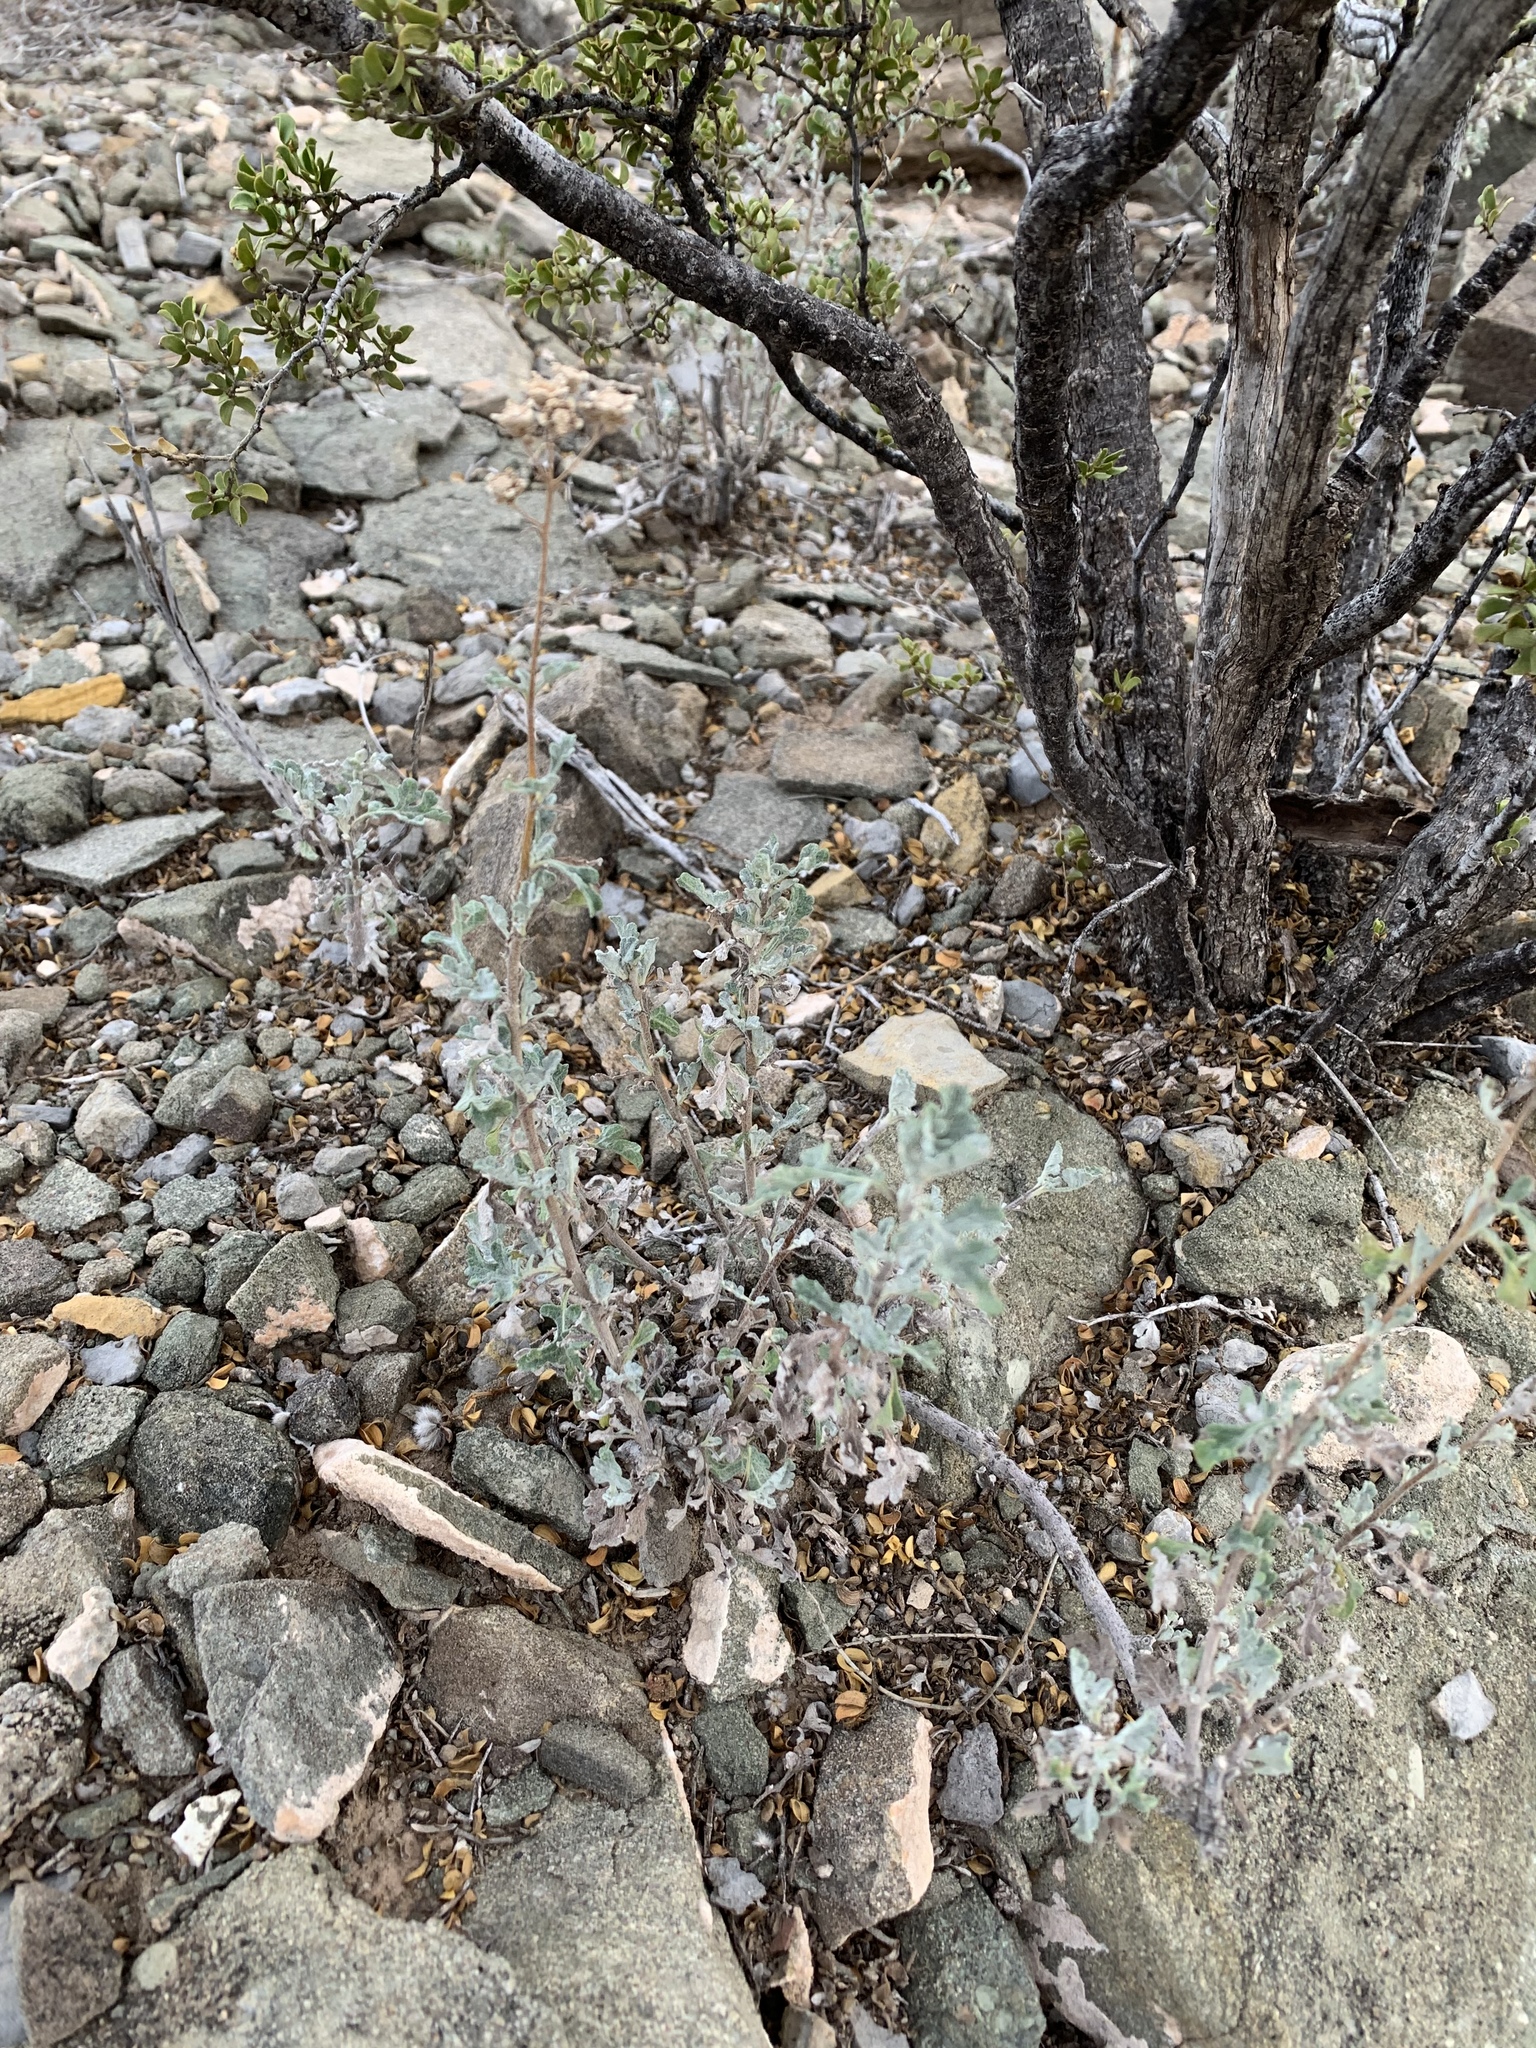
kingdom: Plantae
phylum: Tracheophyta
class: Magnoliopsida
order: Asterales
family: Asteraceae
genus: Parthenium
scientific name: Parthenium incanum
